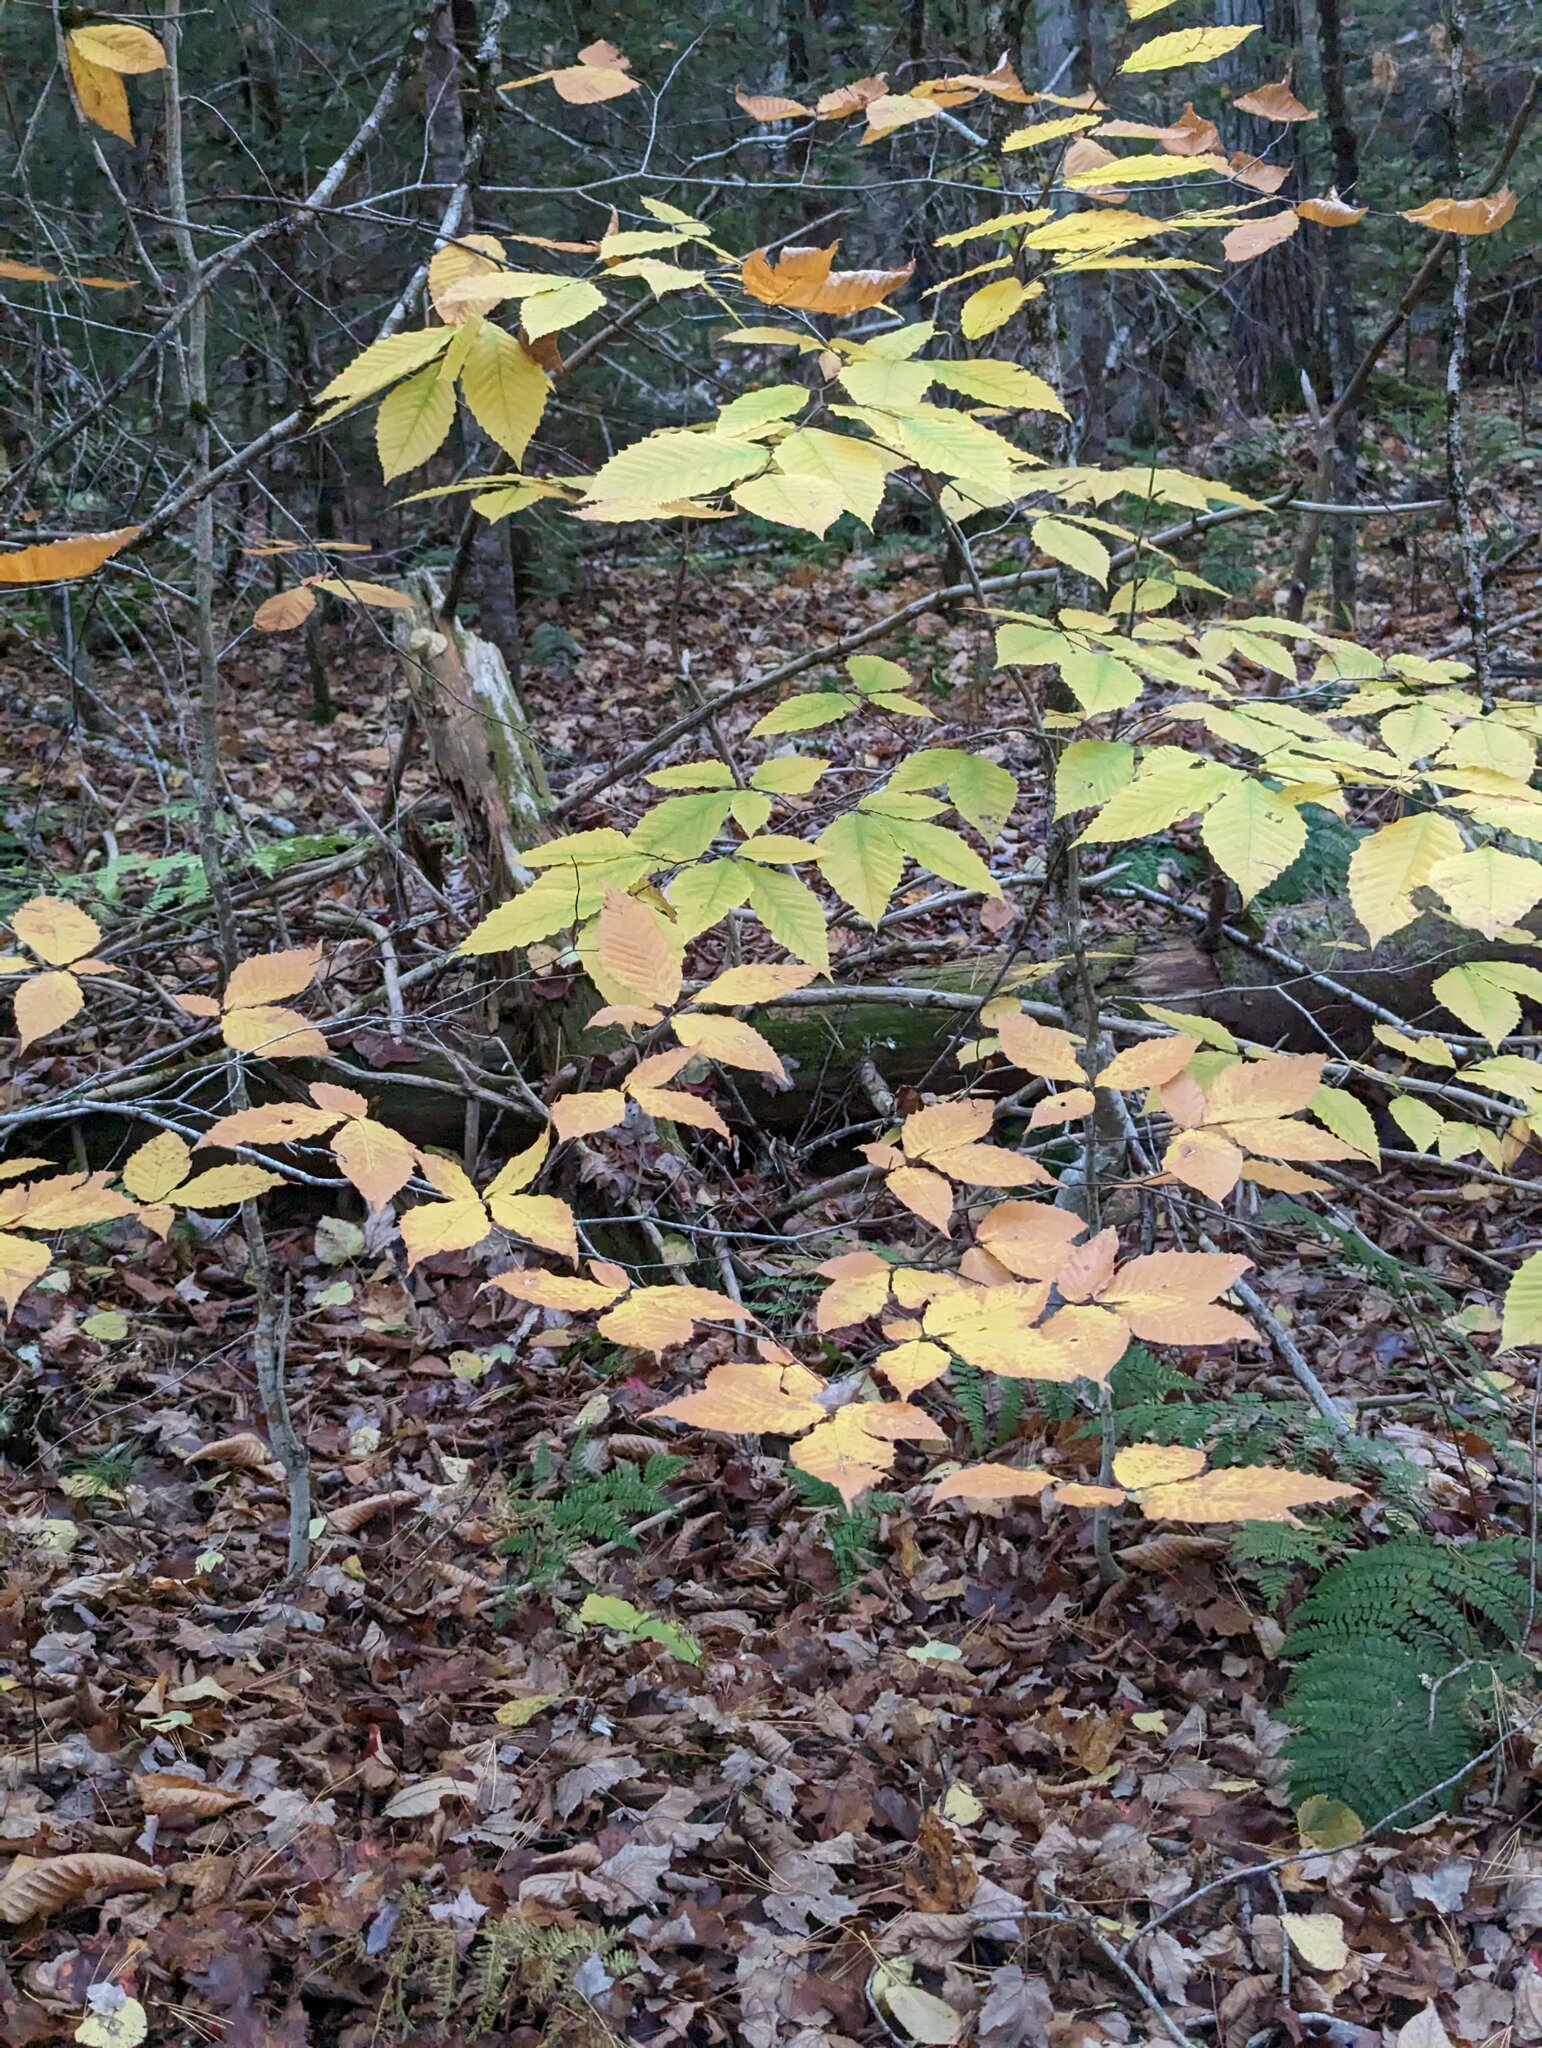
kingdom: Plantae
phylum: Tracheophyta
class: Magnoliopsida
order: Fagales
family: Fagaceae
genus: Fagus
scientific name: Fagus grandifolia
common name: American beech
